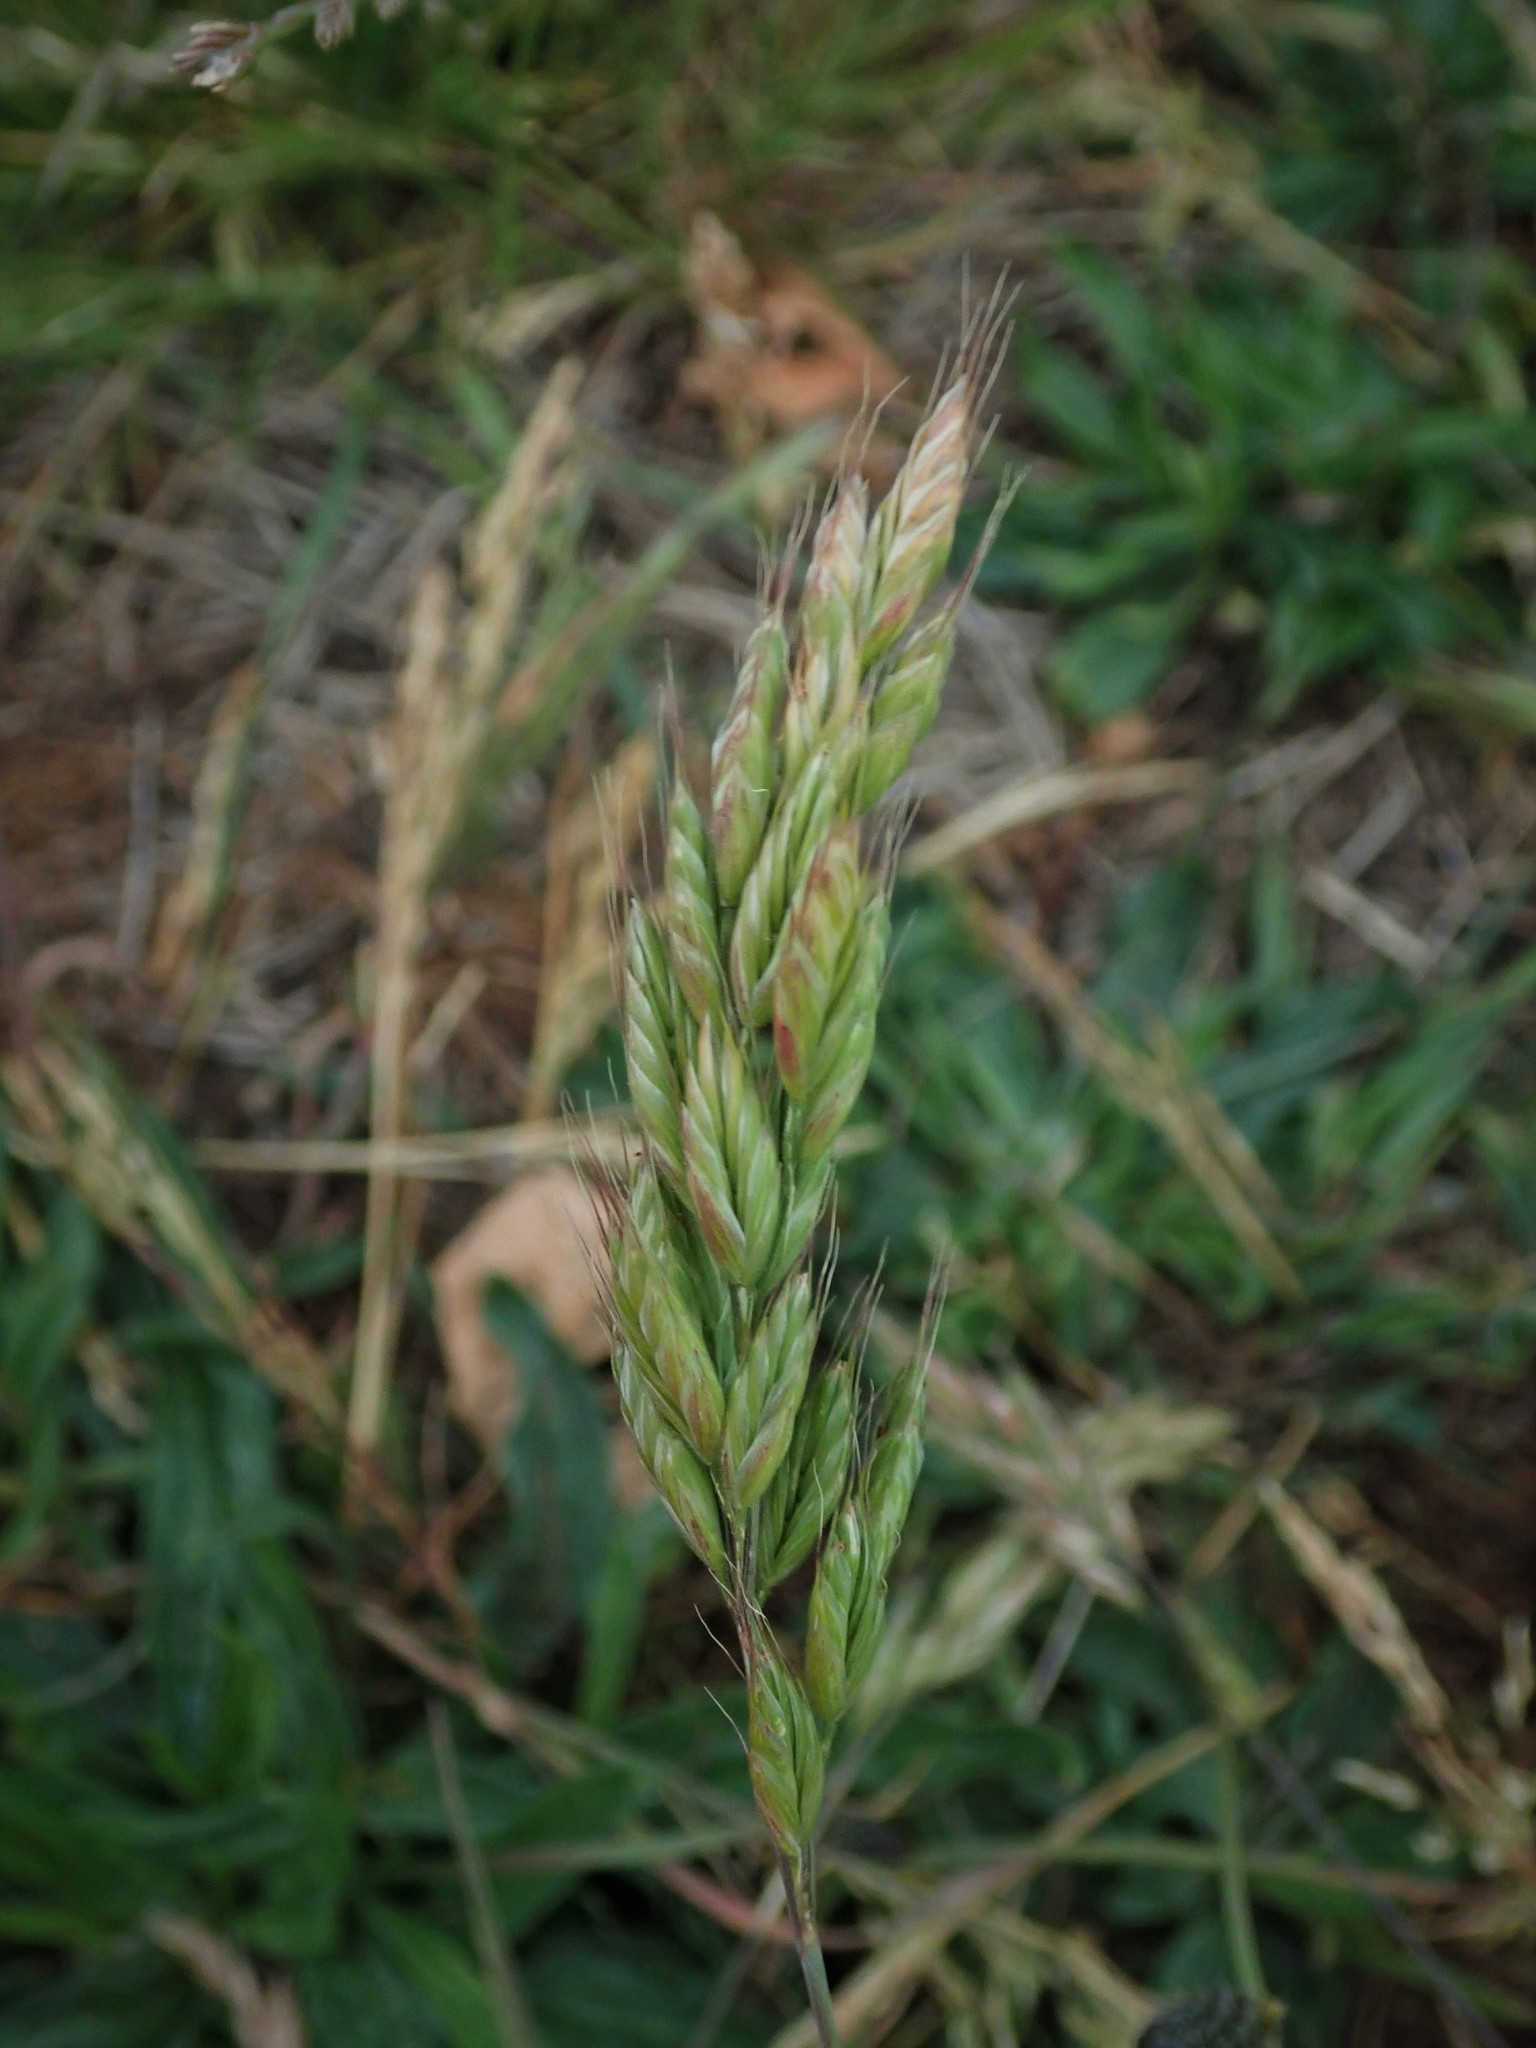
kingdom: Plantae
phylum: Tracheophyta
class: Liliopsida
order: Poales
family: Poaceae
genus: Bromus
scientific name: Bromus hordeaceus
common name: Soft brome
